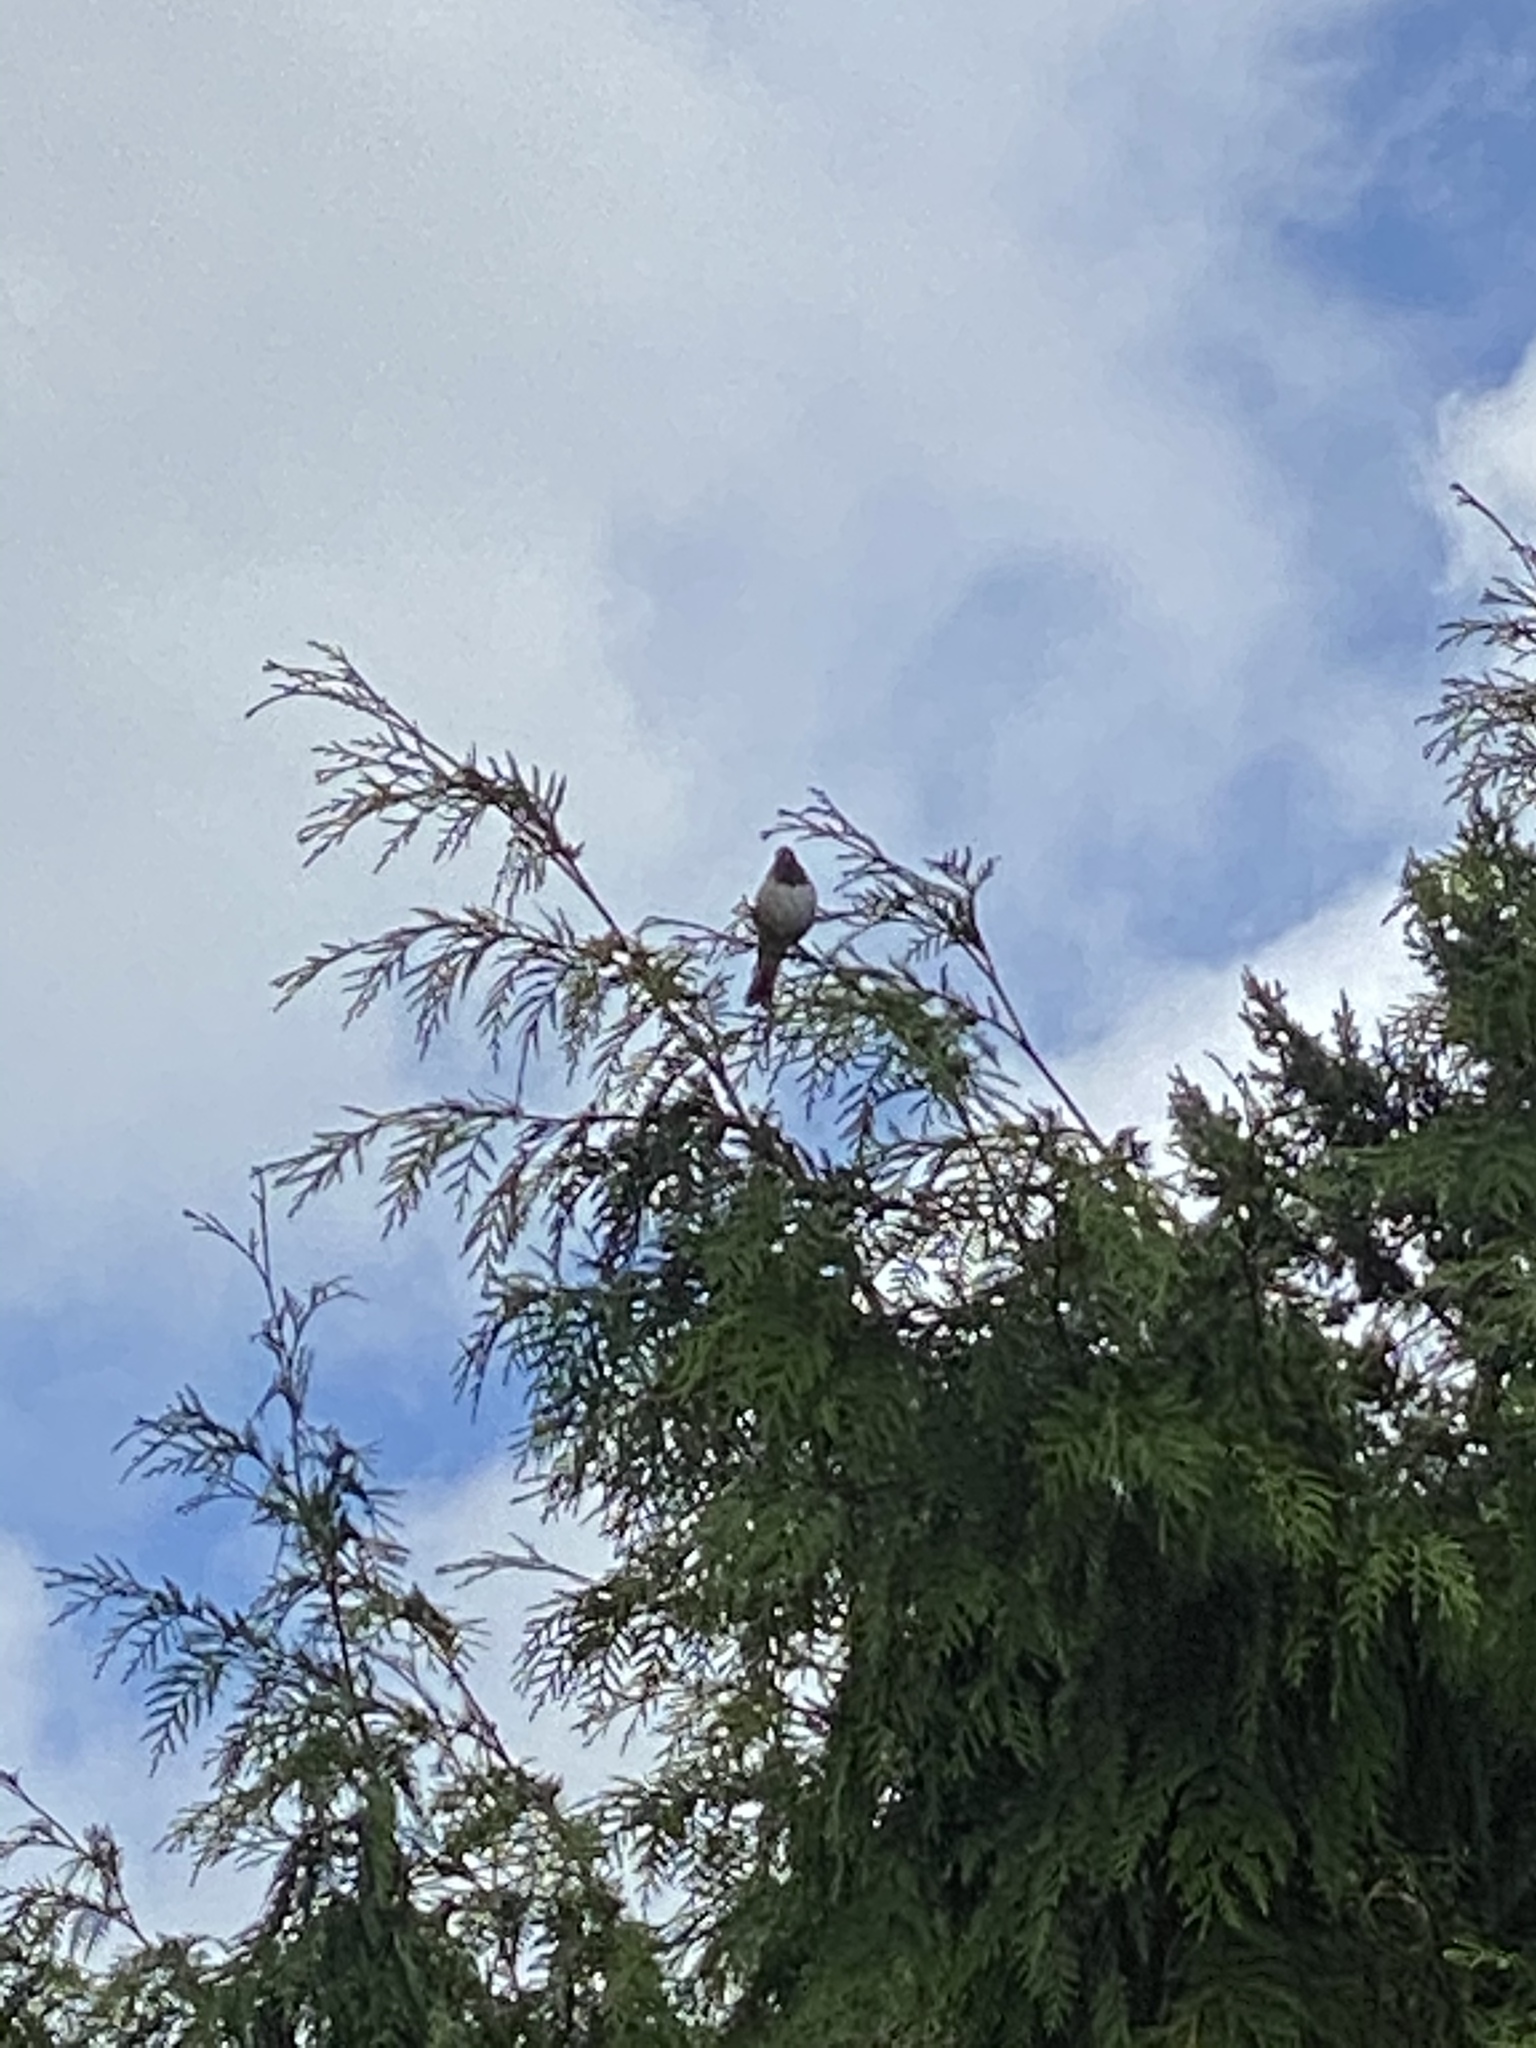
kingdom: Animalia
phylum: Chordata
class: Aves
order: Passeriformes
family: Passerellidae
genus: Junco
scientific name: Junco hyemalis
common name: Dark-eyed junco
